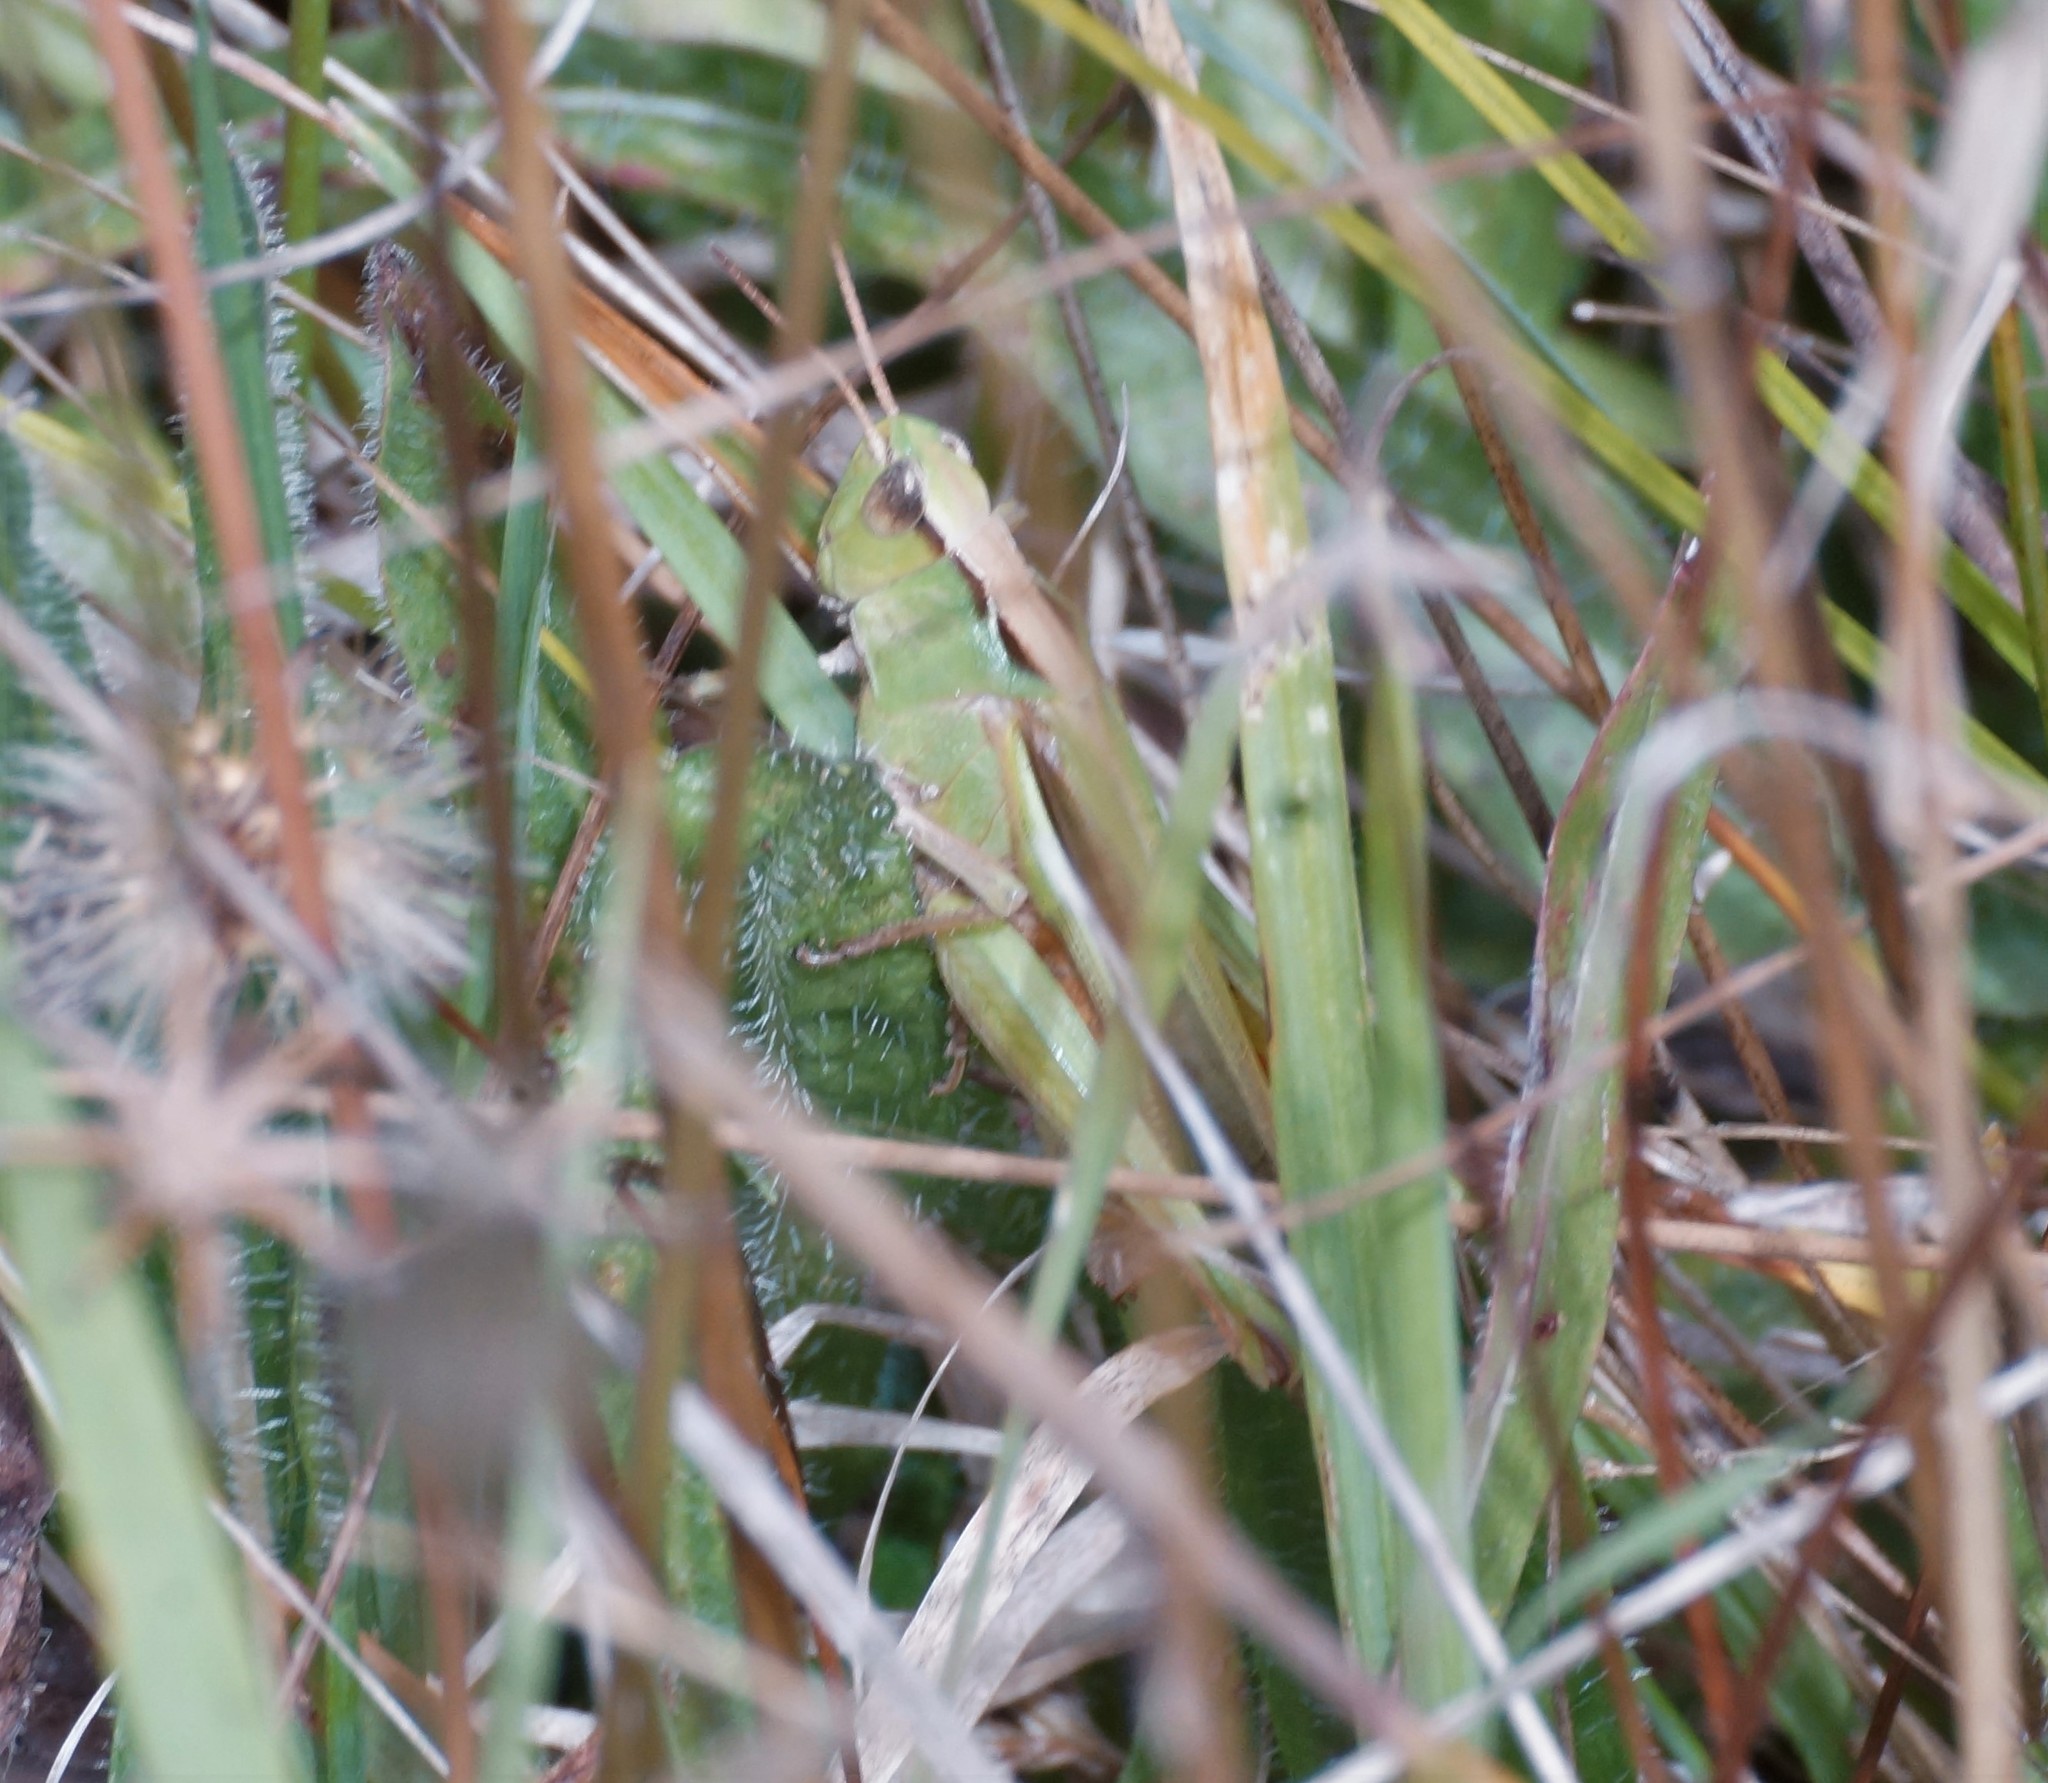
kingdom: Animalia
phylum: Arthropoda
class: Insecta
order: Orthoptera
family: Acrididae
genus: Schizobothrus
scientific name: Schizobothrus flavovittatus
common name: Disappearing grasshopper
